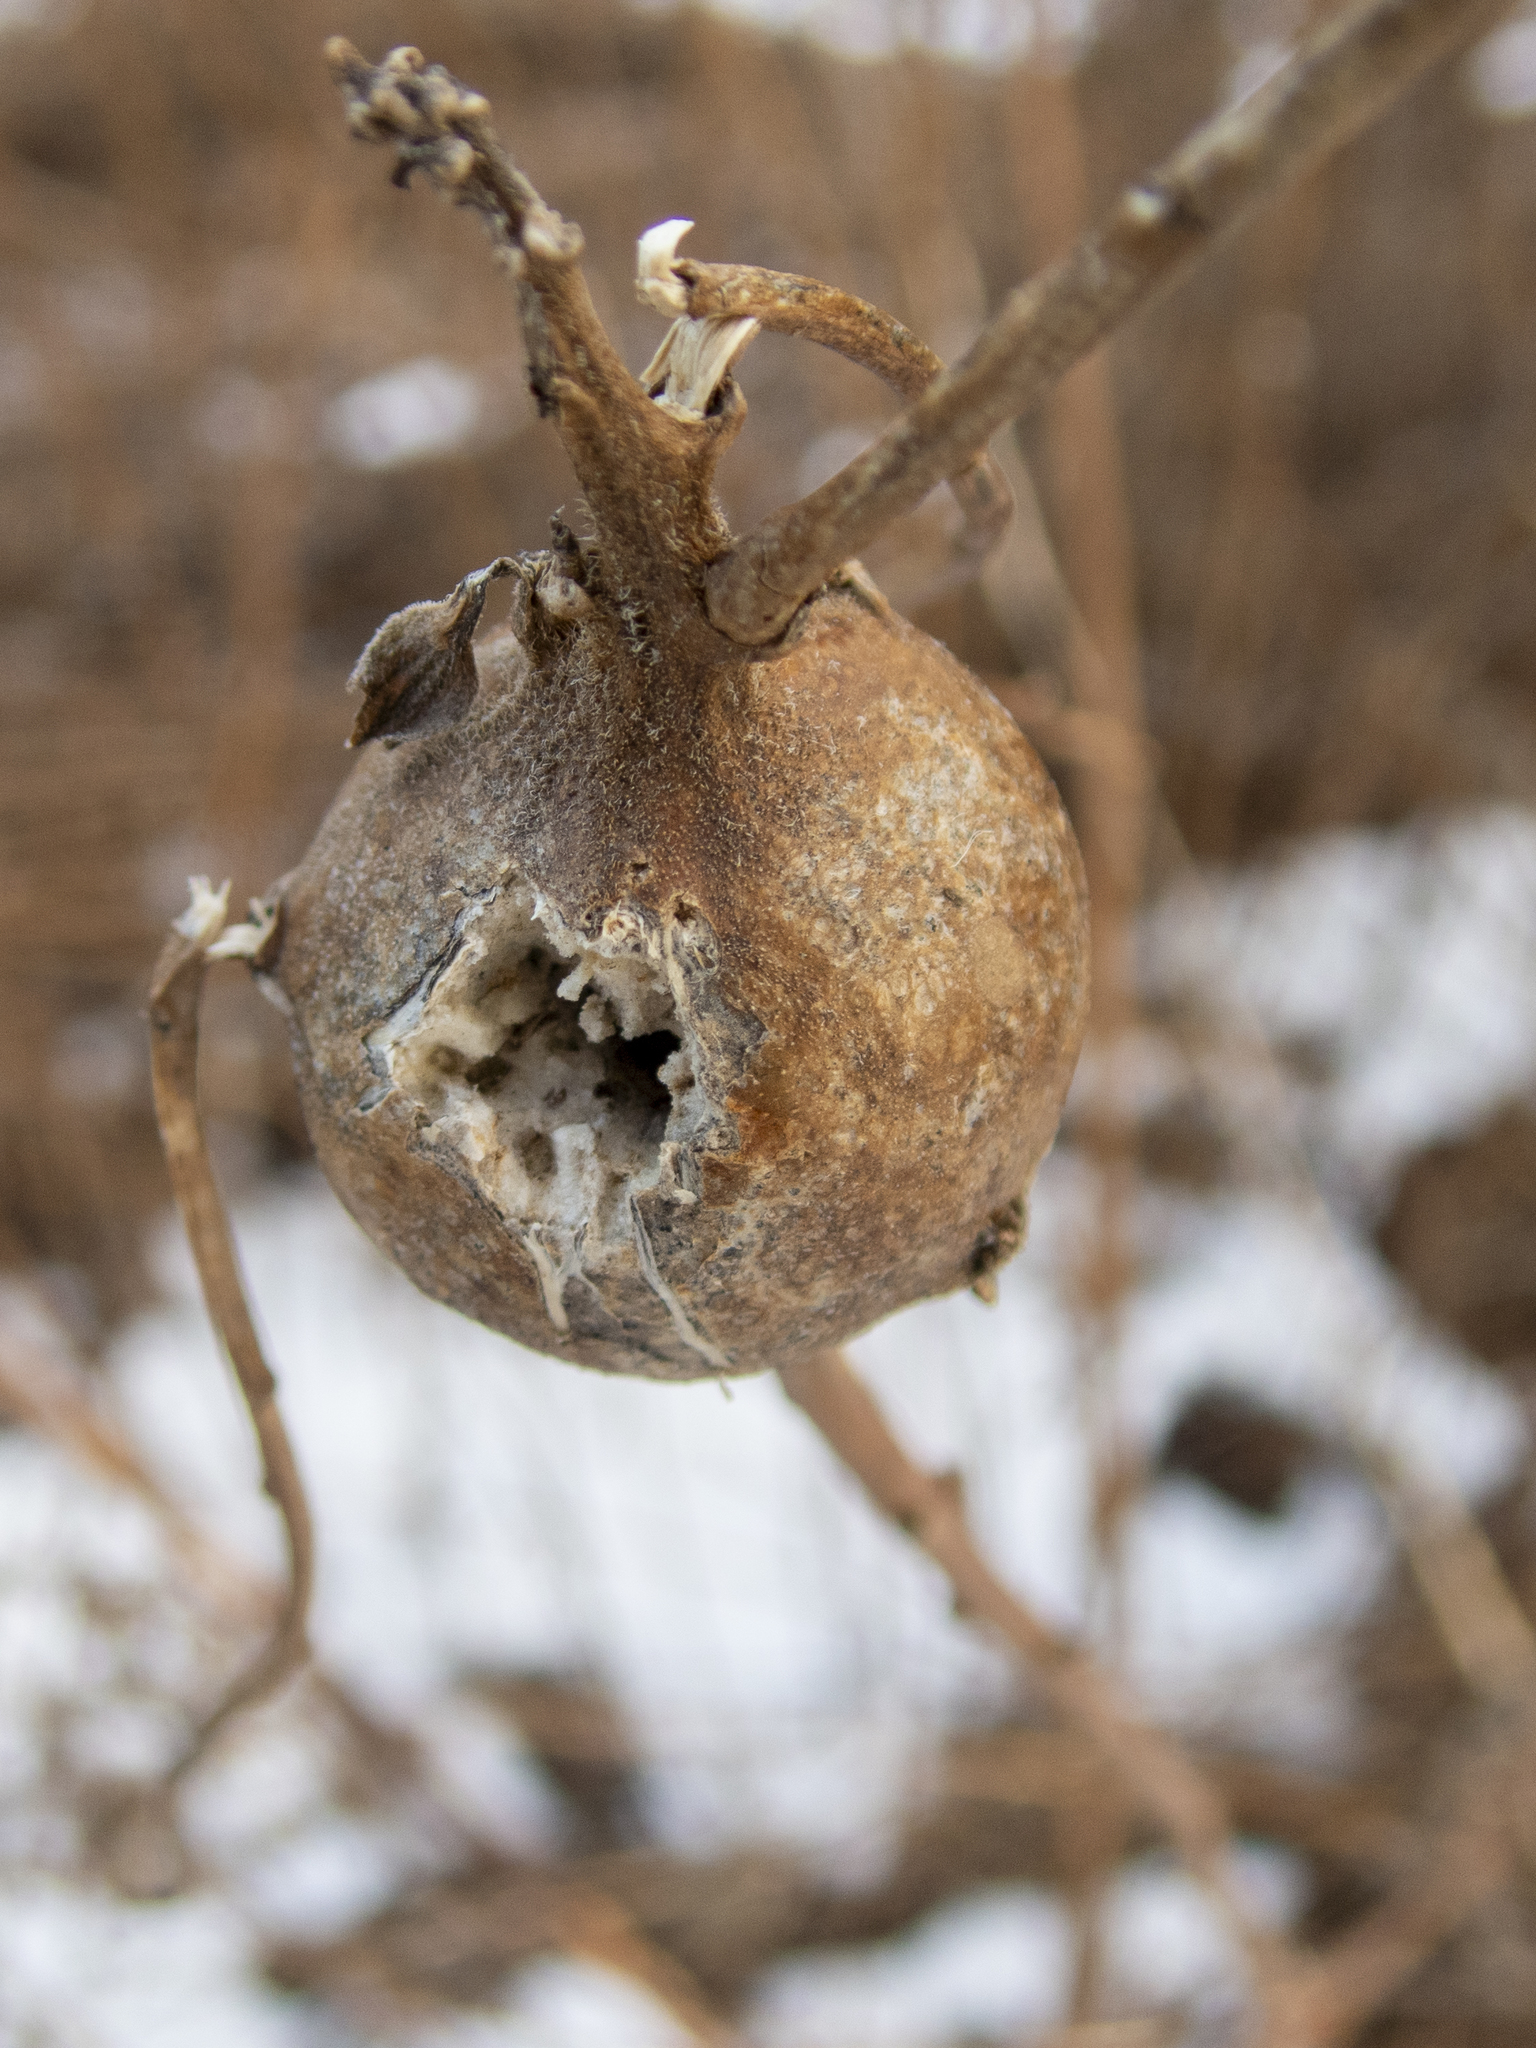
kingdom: Animalia
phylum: Arthropoda
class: Insecta
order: Diptera
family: Tephritidae
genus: Eurosta
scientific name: Eurosta solidaginis
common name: Goldenrod gall fly
